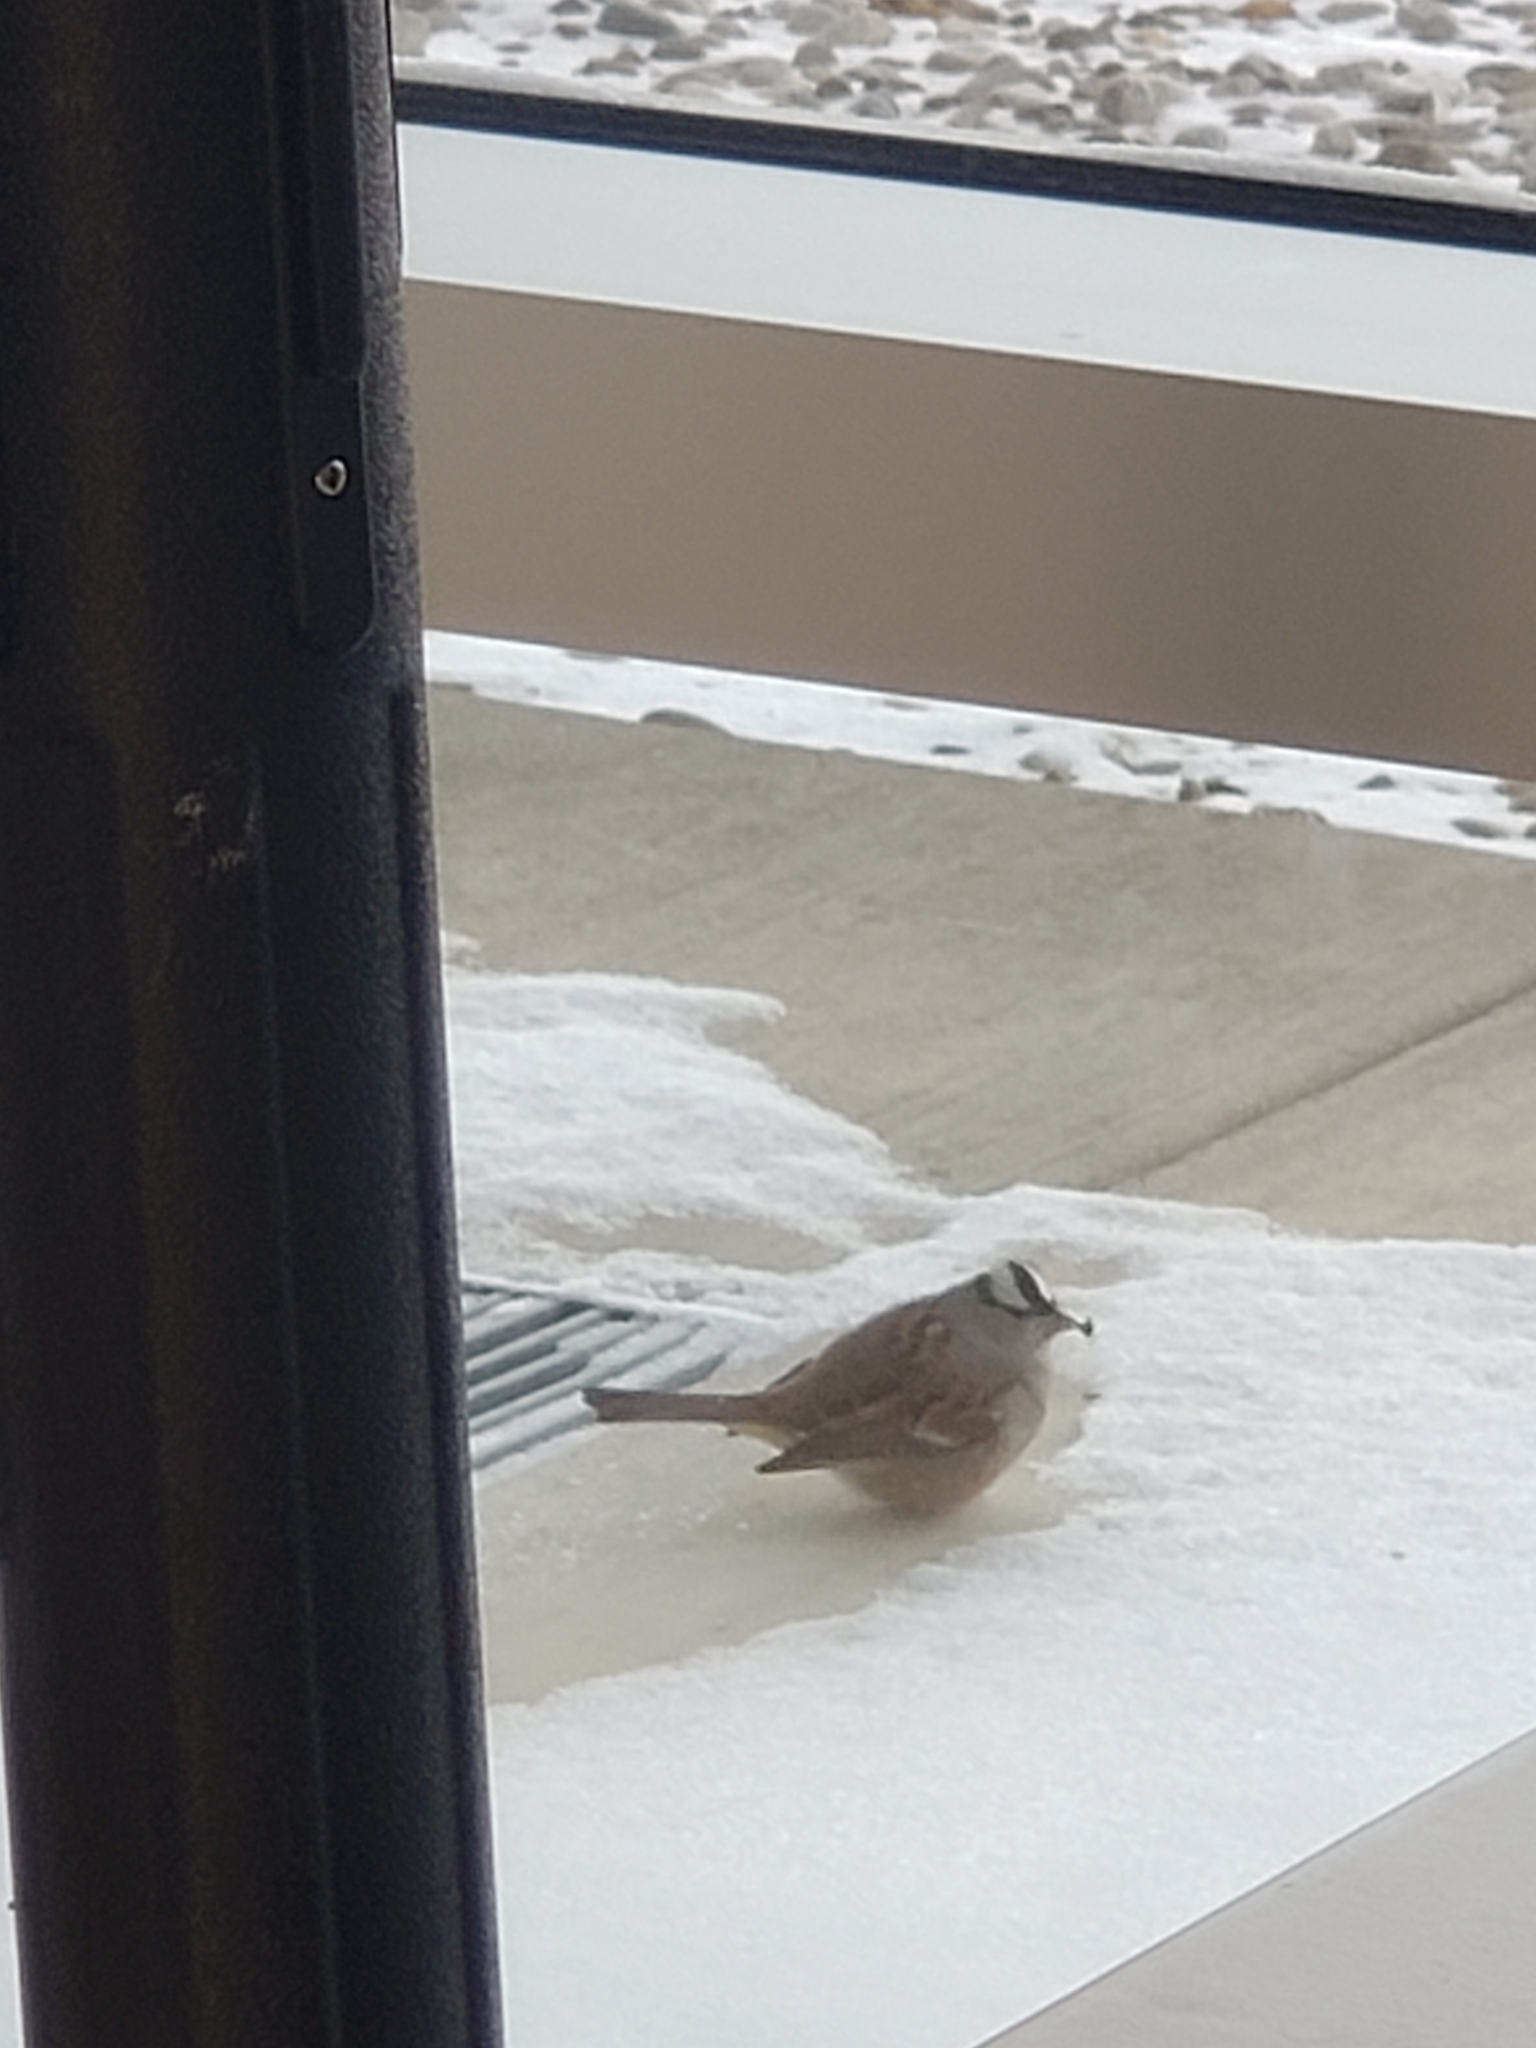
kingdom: Animalia
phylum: Chordata
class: Aves
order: Passeriformes
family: Passerellidae
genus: Zonotrichia
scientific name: Zonotrichia leucophrys
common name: White-crowned sparrow
